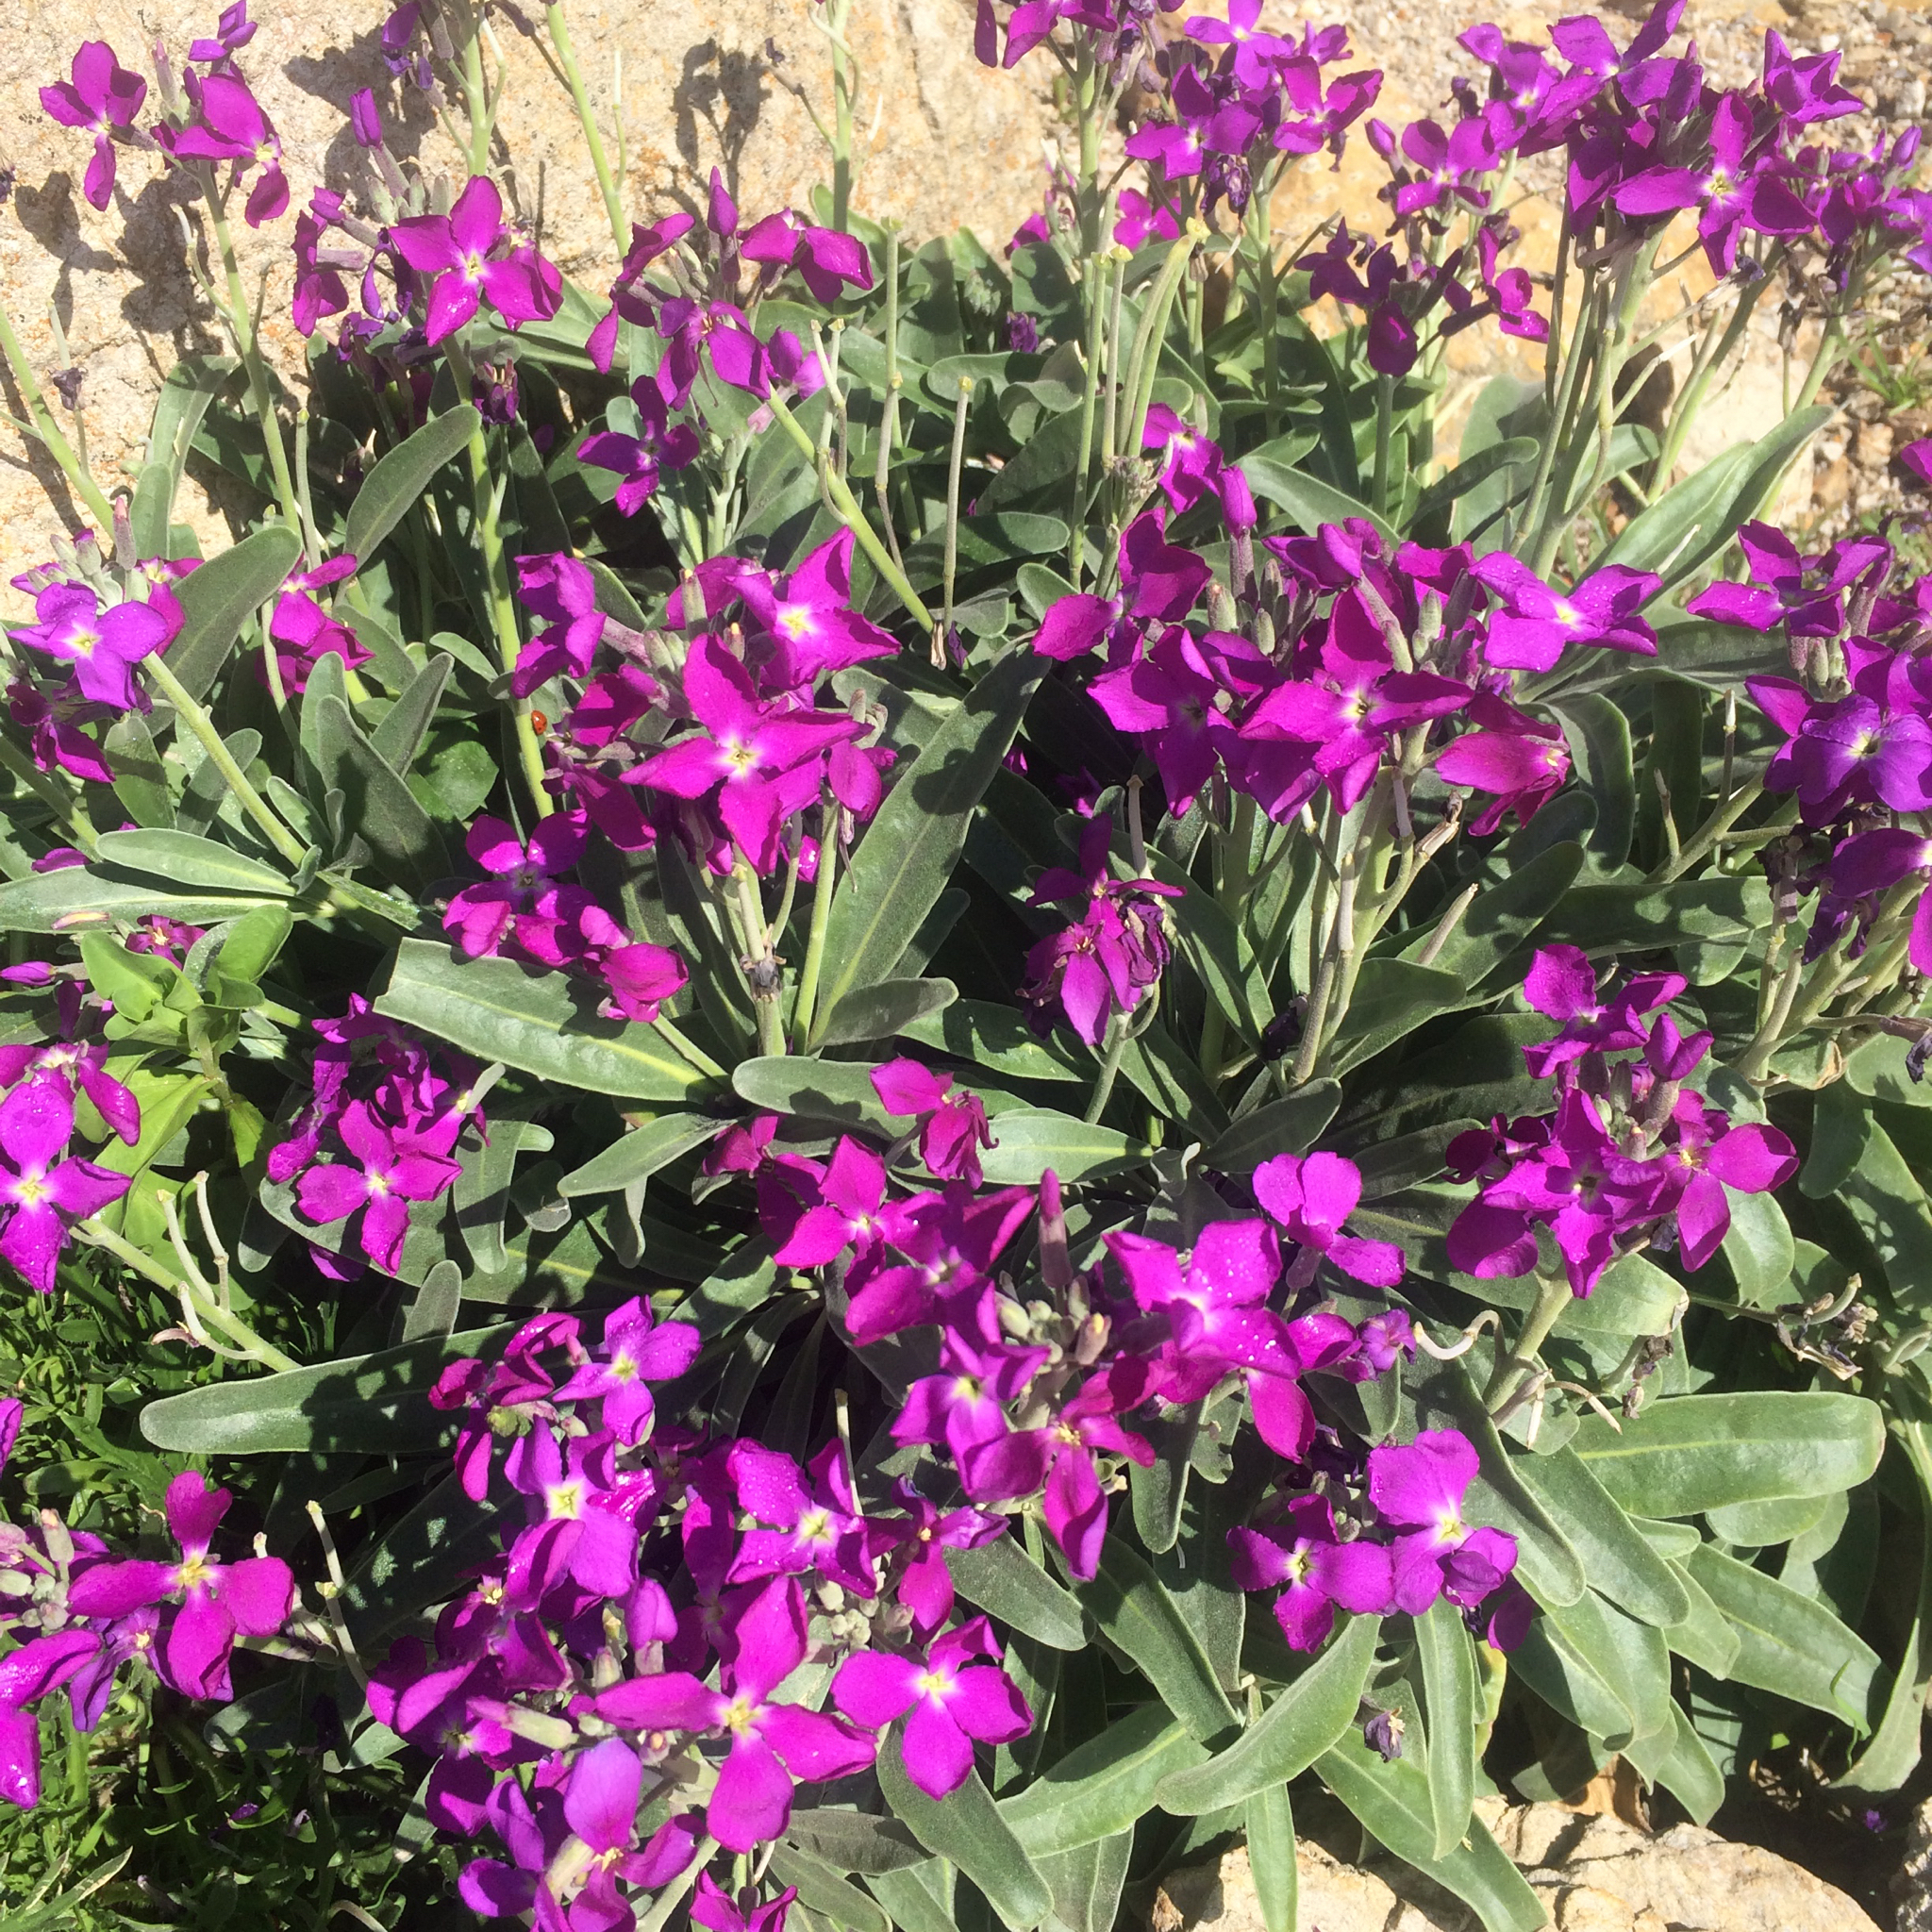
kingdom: Plantae
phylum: Tracheophyta
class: Magnoliopsida
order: Brassicales
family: Brassicaceae
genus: Matthiola
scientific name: Matthiola incana
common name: Hoary stock
